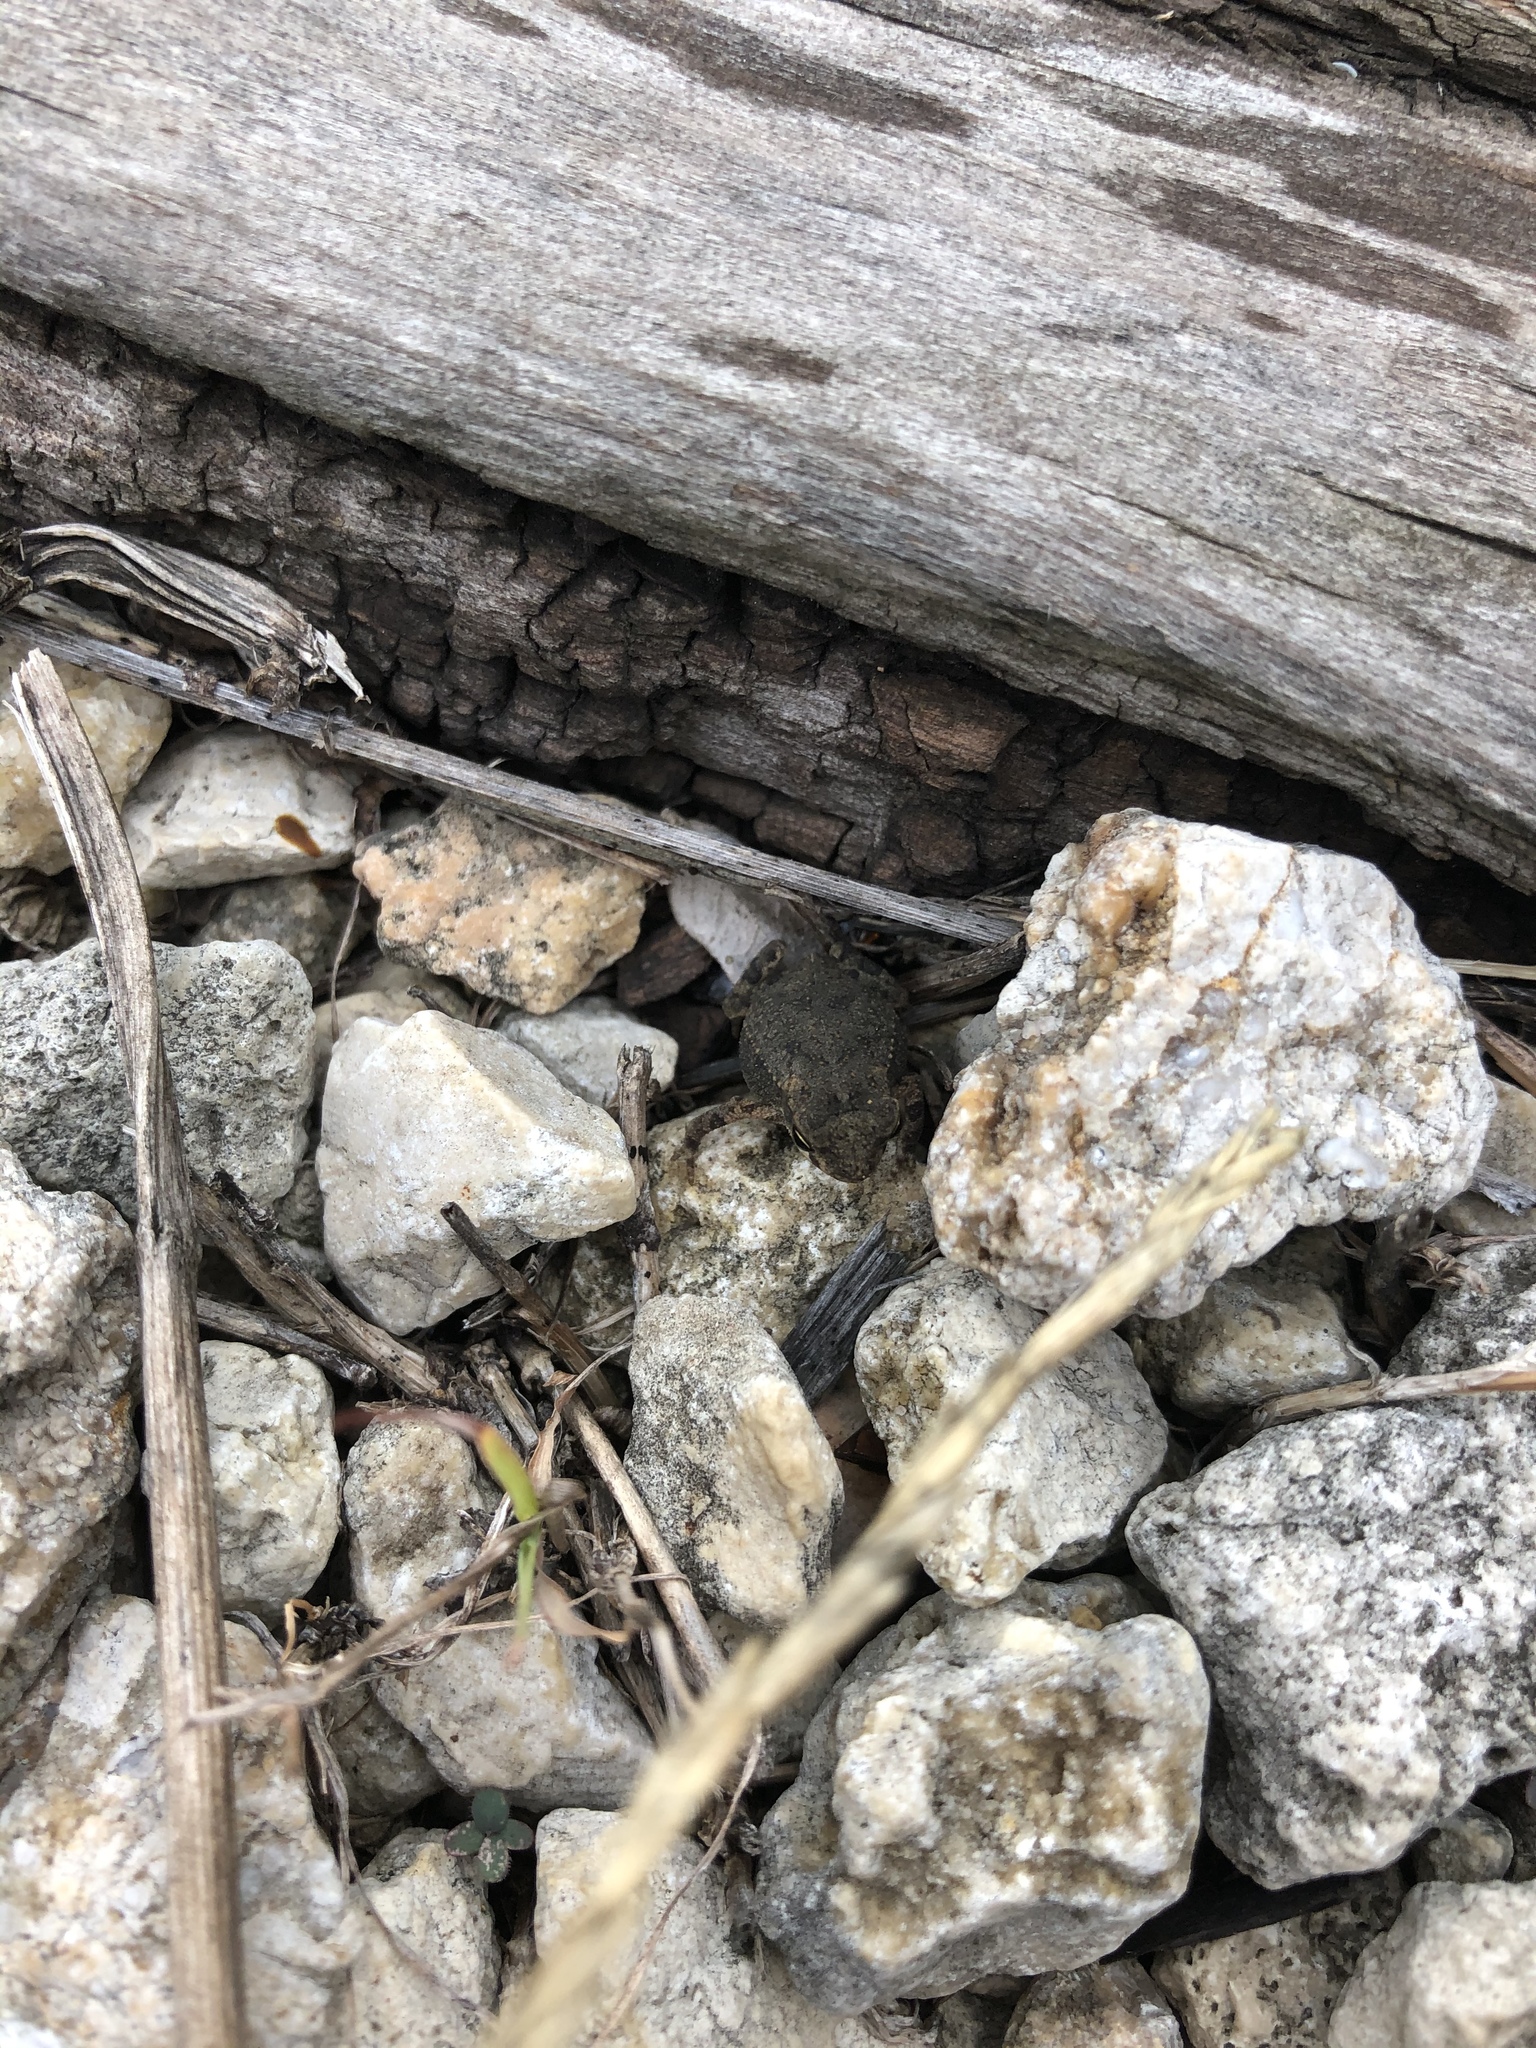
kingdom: Animalia
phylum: Chordata
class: Amphibia
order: Anura
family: Bufonidae
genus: Incilius
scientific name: Incilius nebulifer
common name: Gulf coast toad
